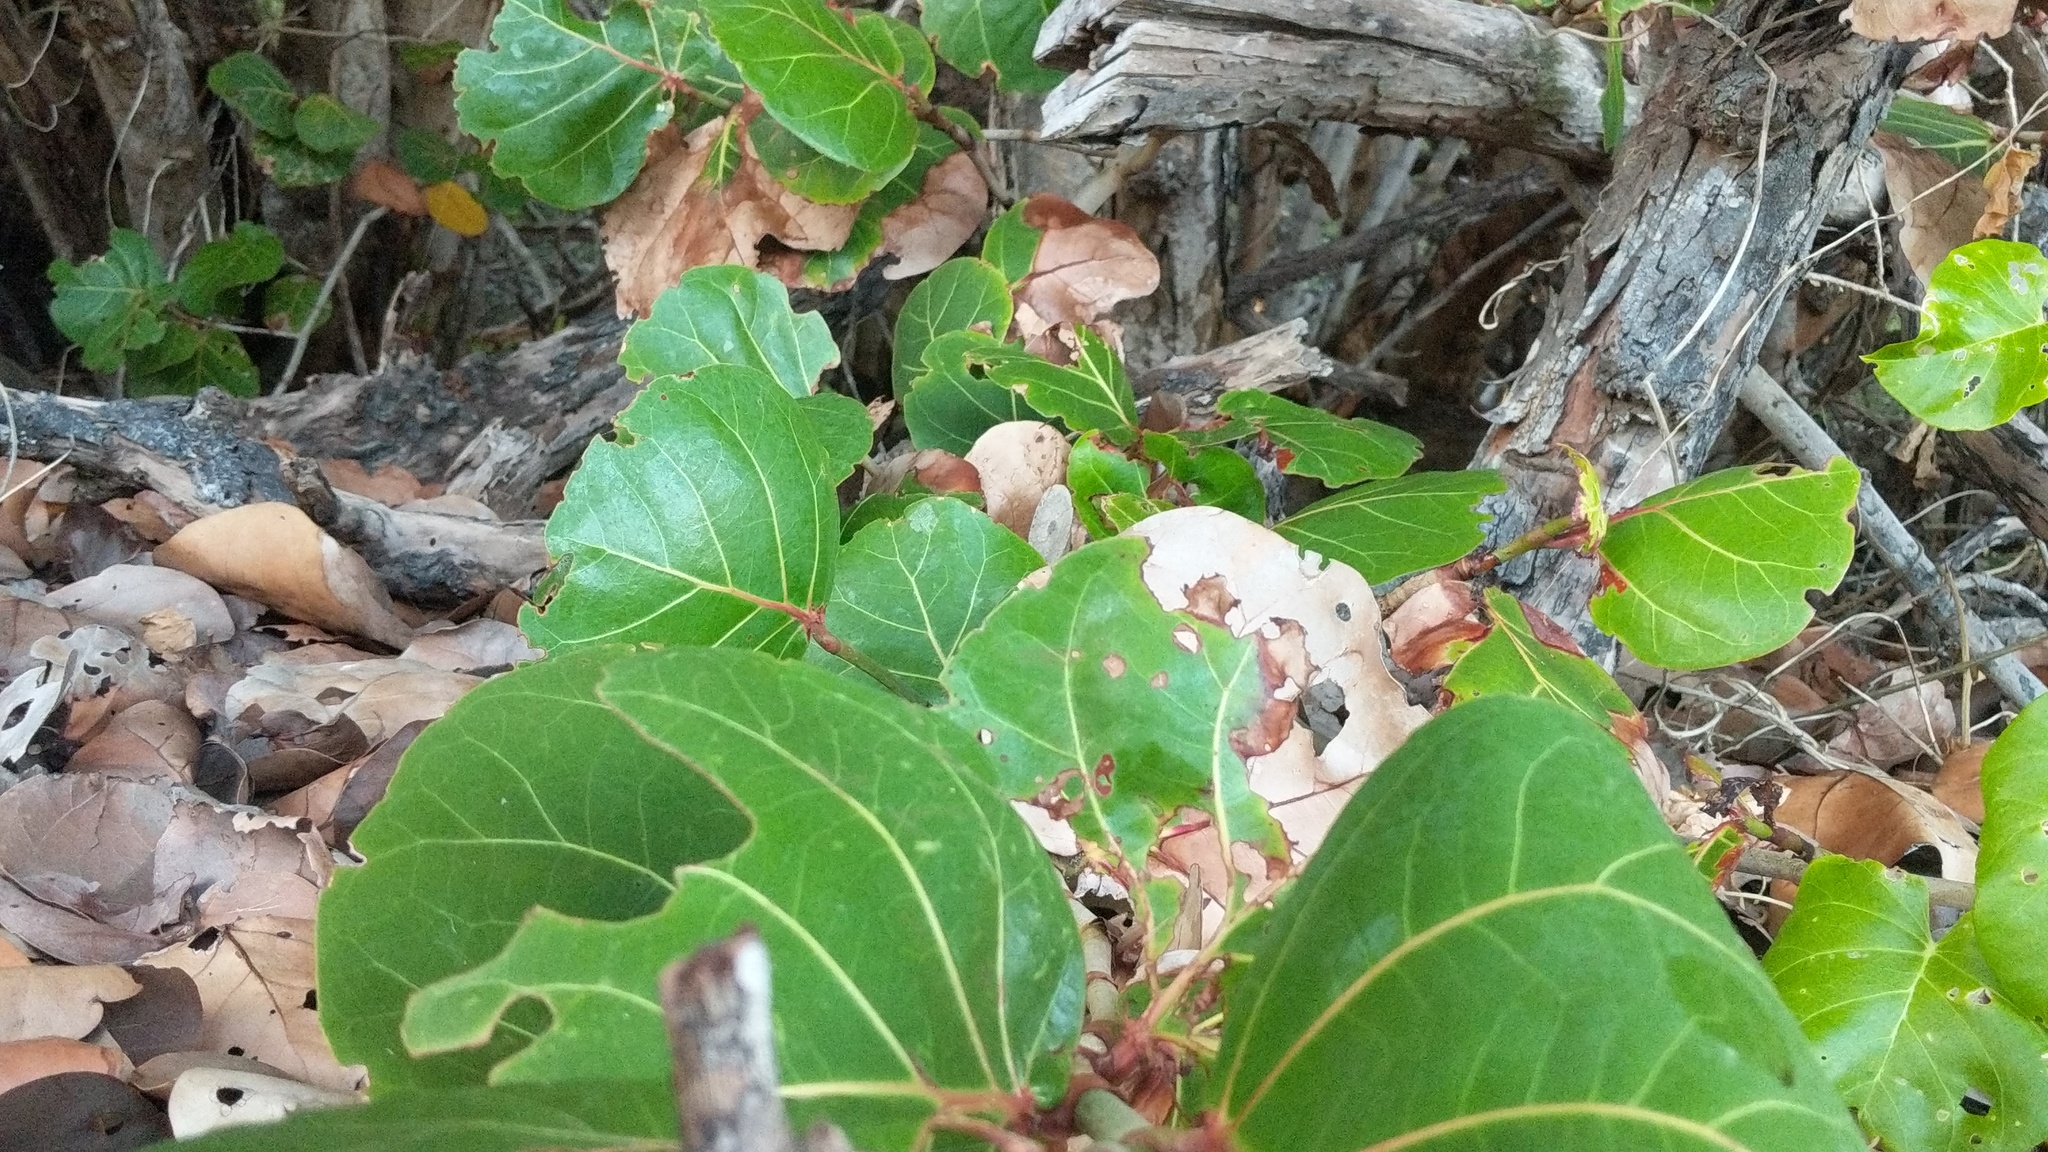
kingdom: Plantae
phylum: Tracheophyta
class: Magnoliopsida
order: Caryophyllales
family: Polygonaceae
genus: Coccoloba
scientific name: Coccoloba uvifera
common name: Seagrape
